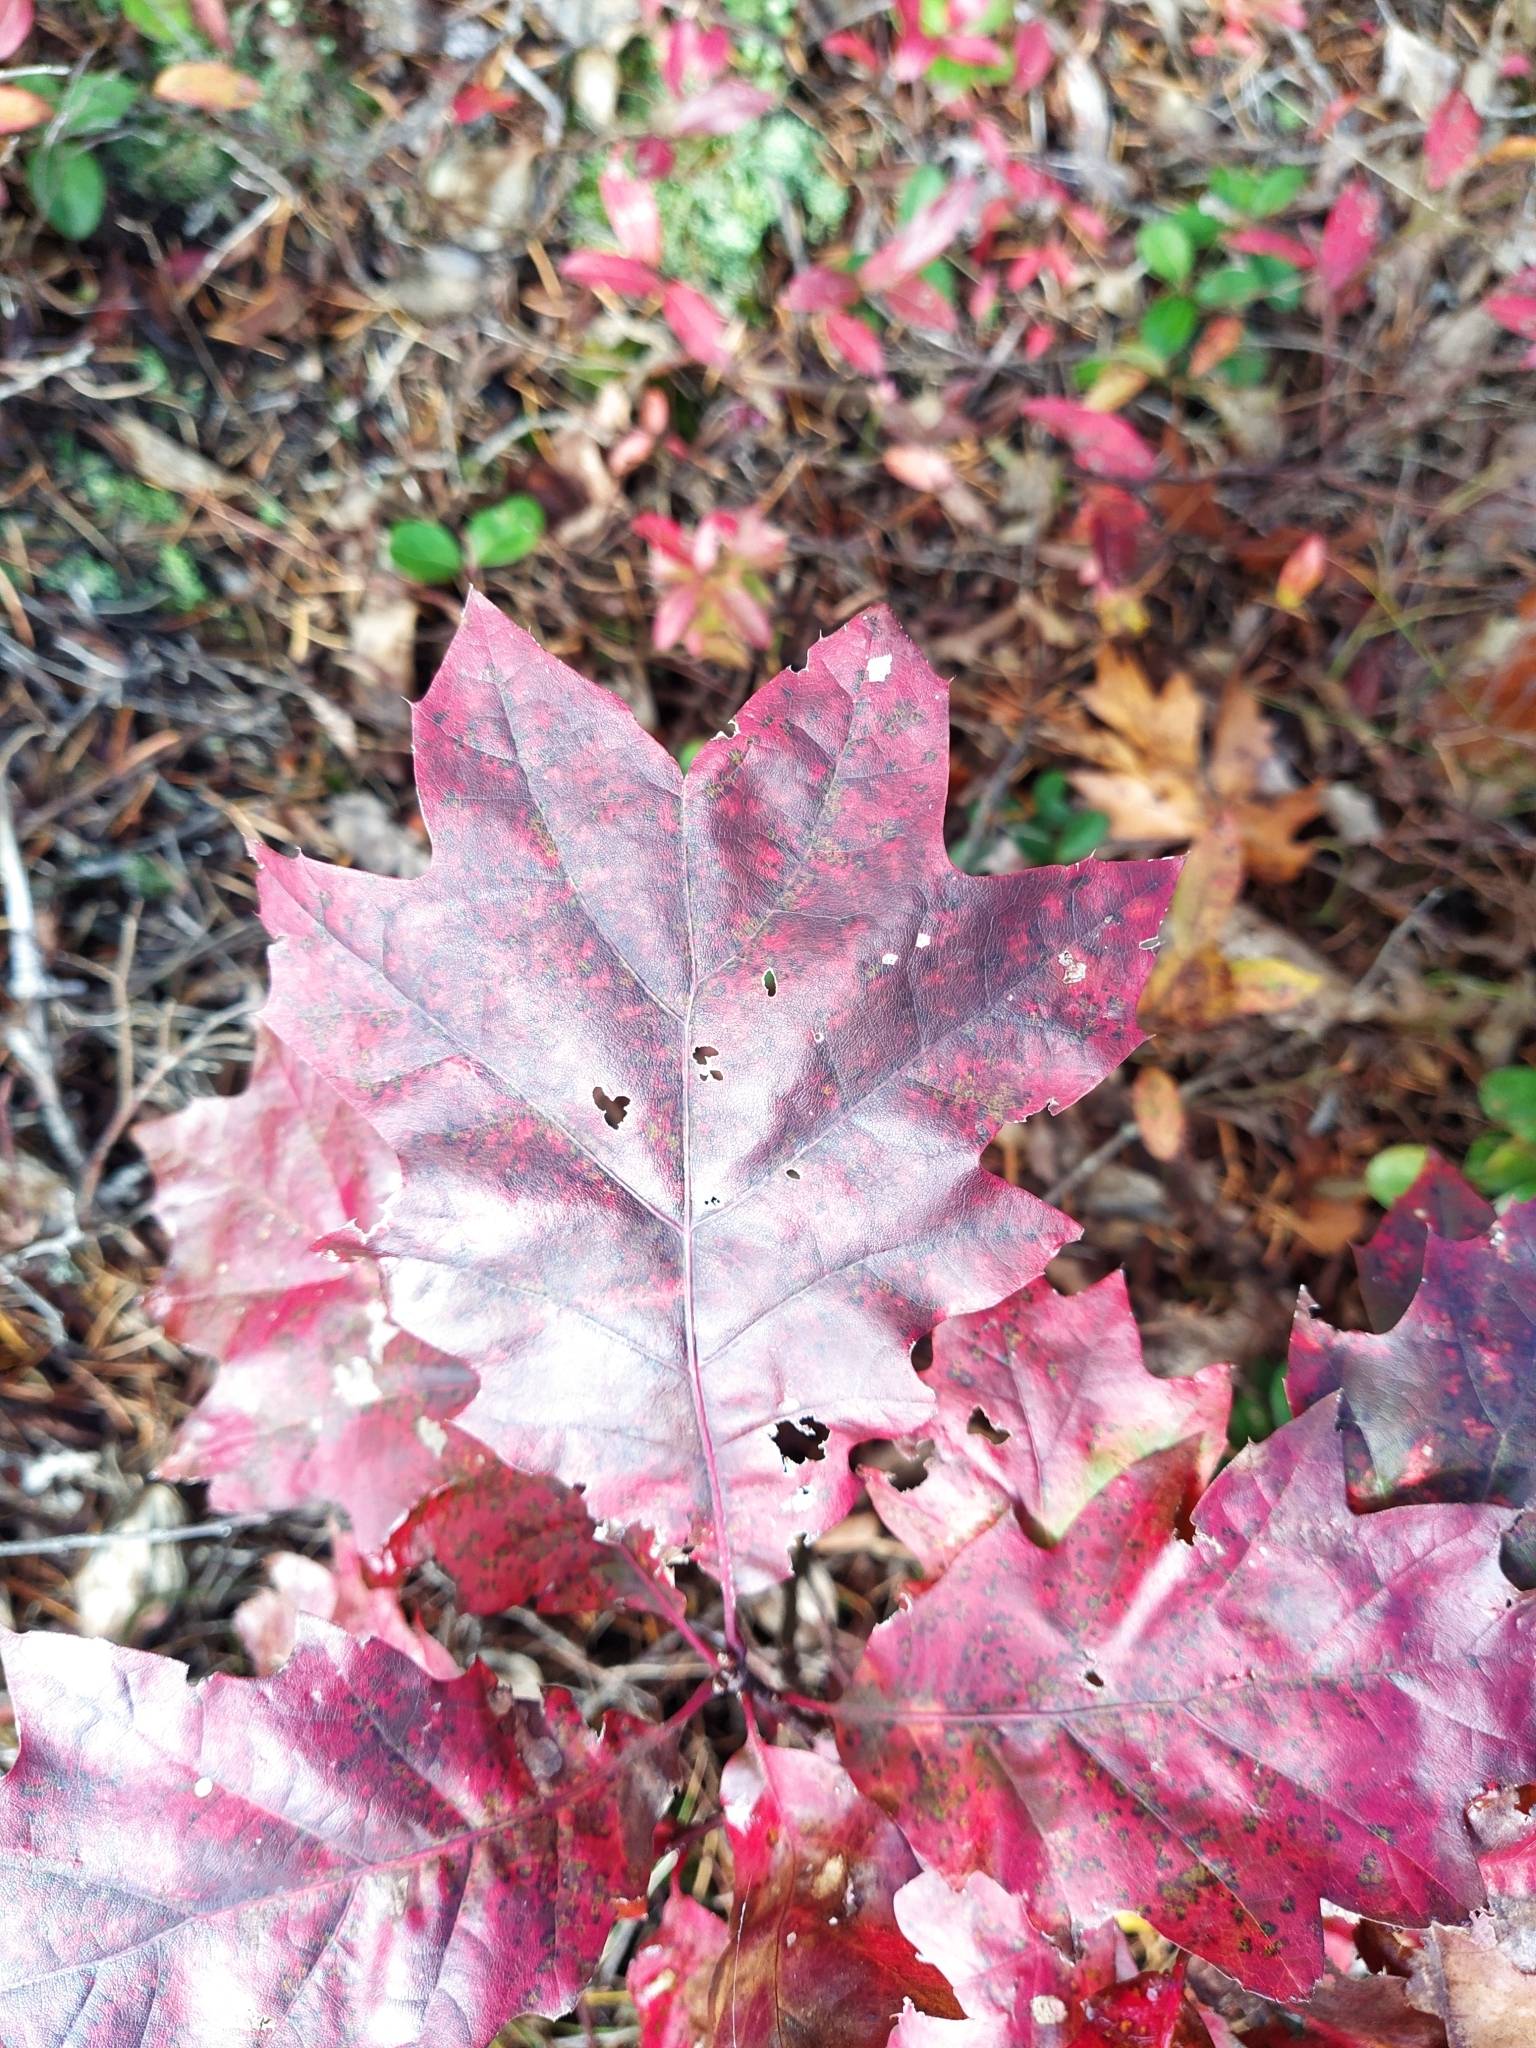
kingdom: Plantae
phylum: Tracheophyta
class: Magnoliopsida
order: Fagales
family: Fagaceae
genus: Quercus
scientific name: Quercus rubra
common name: Red oak
